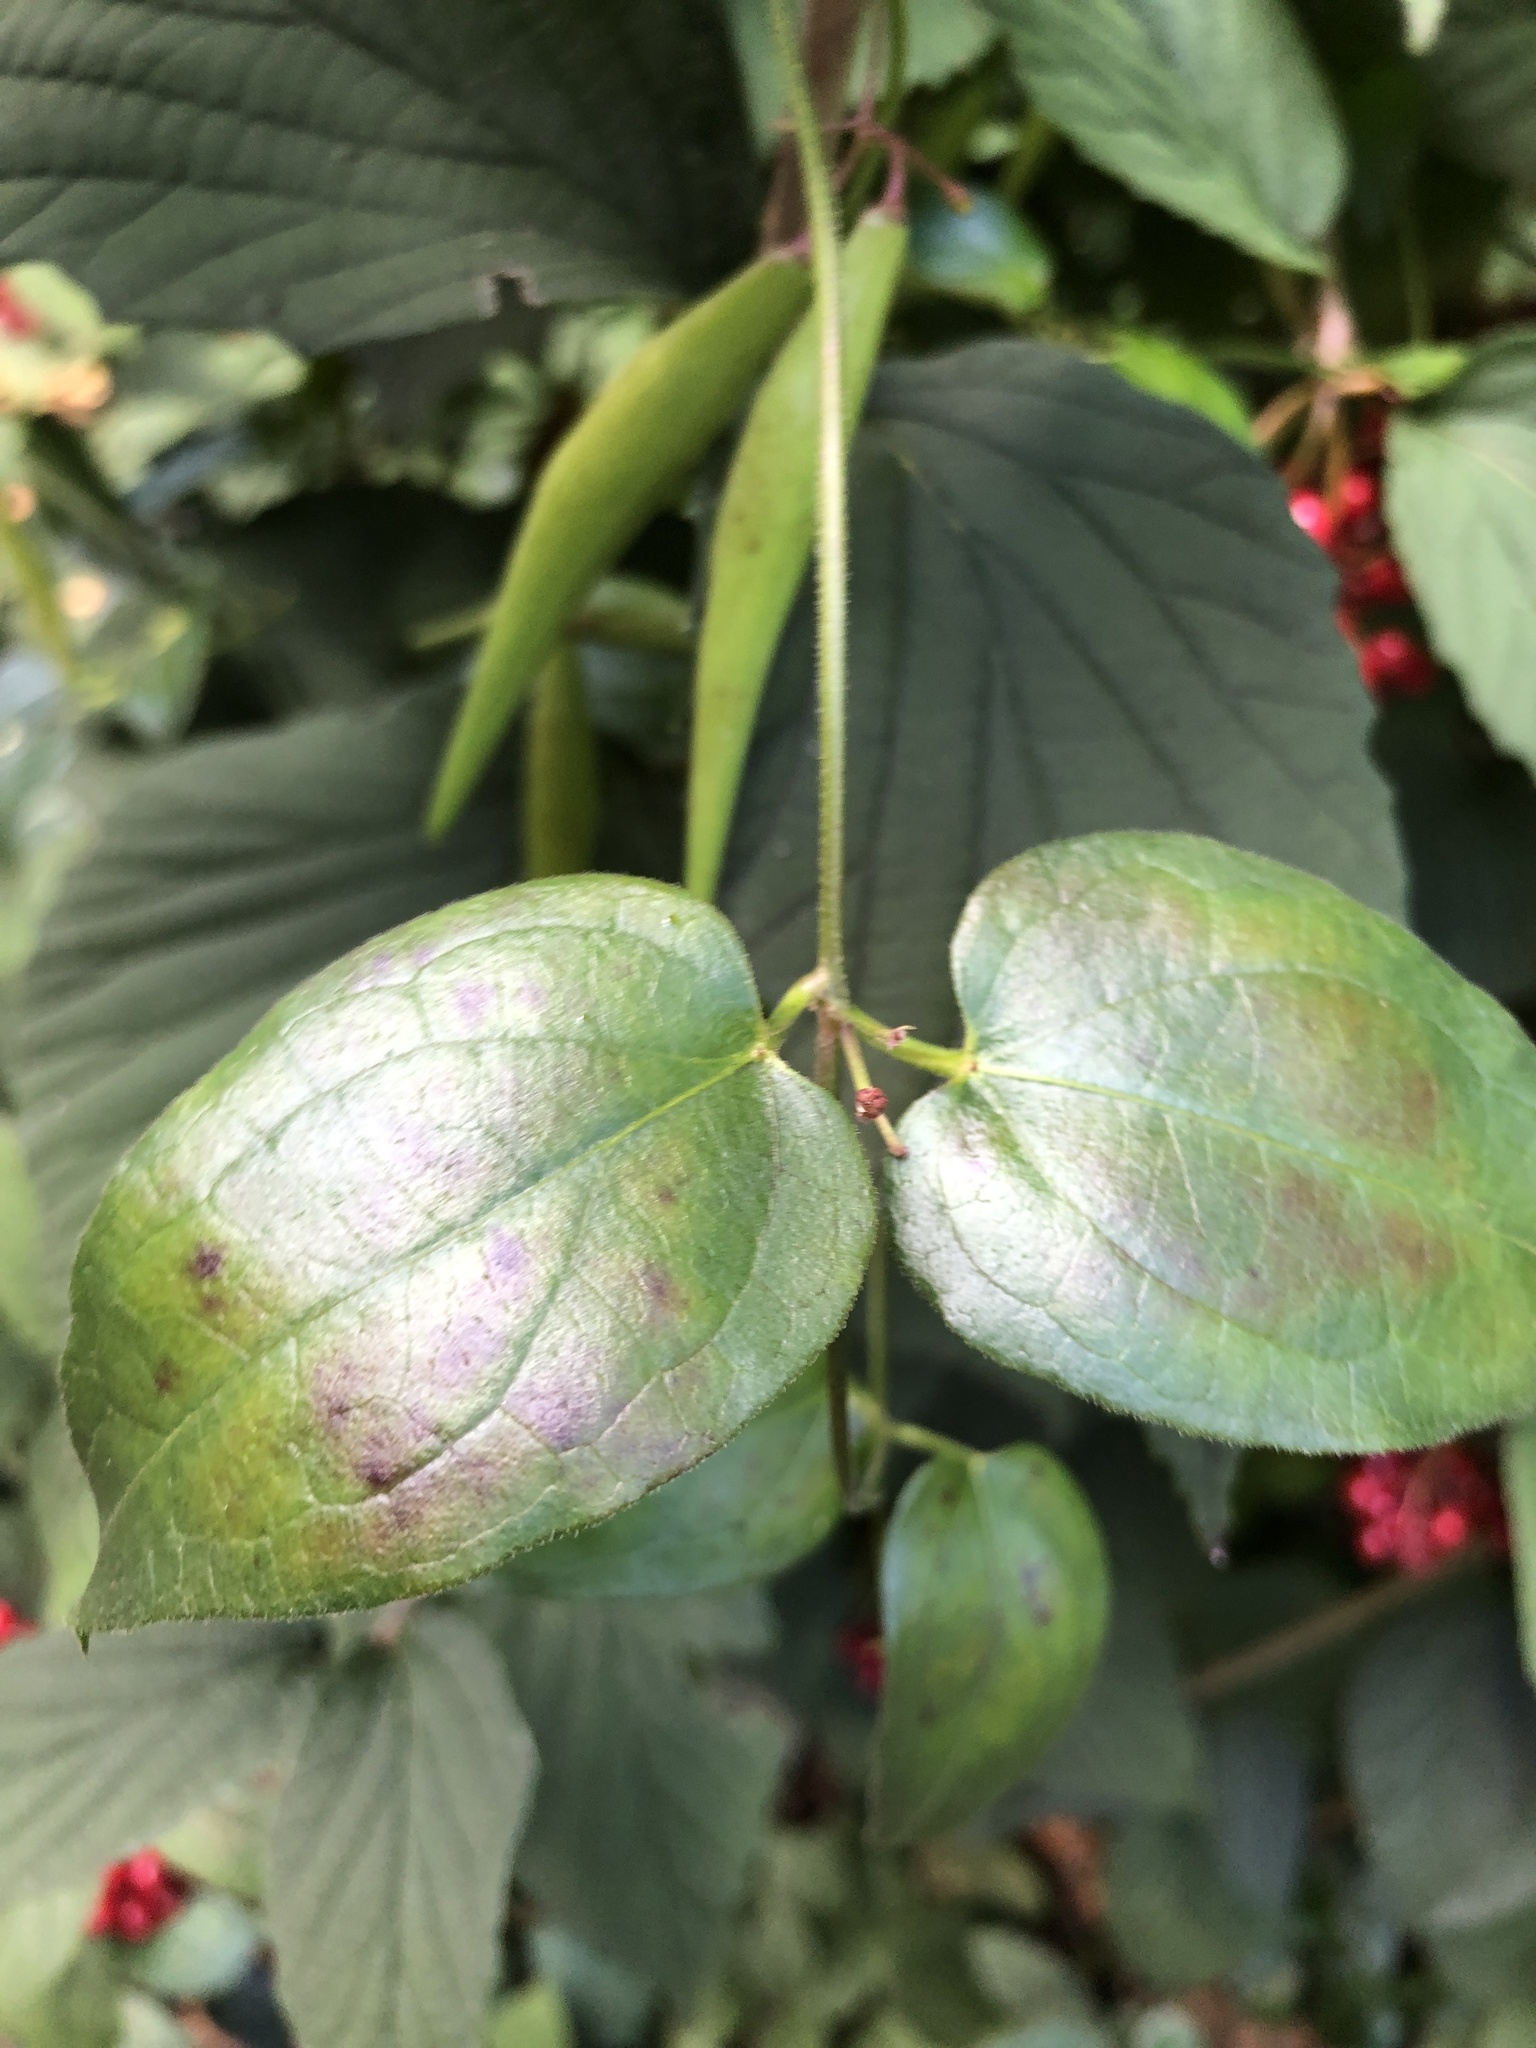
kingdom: Plantae
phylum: Tracheophyta
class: Magnoliopsida
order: Gentianales
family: Apocynaceae
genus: Vincetoxicum
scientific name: Vincetoxicum nigrum
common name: Black swallow-wort
